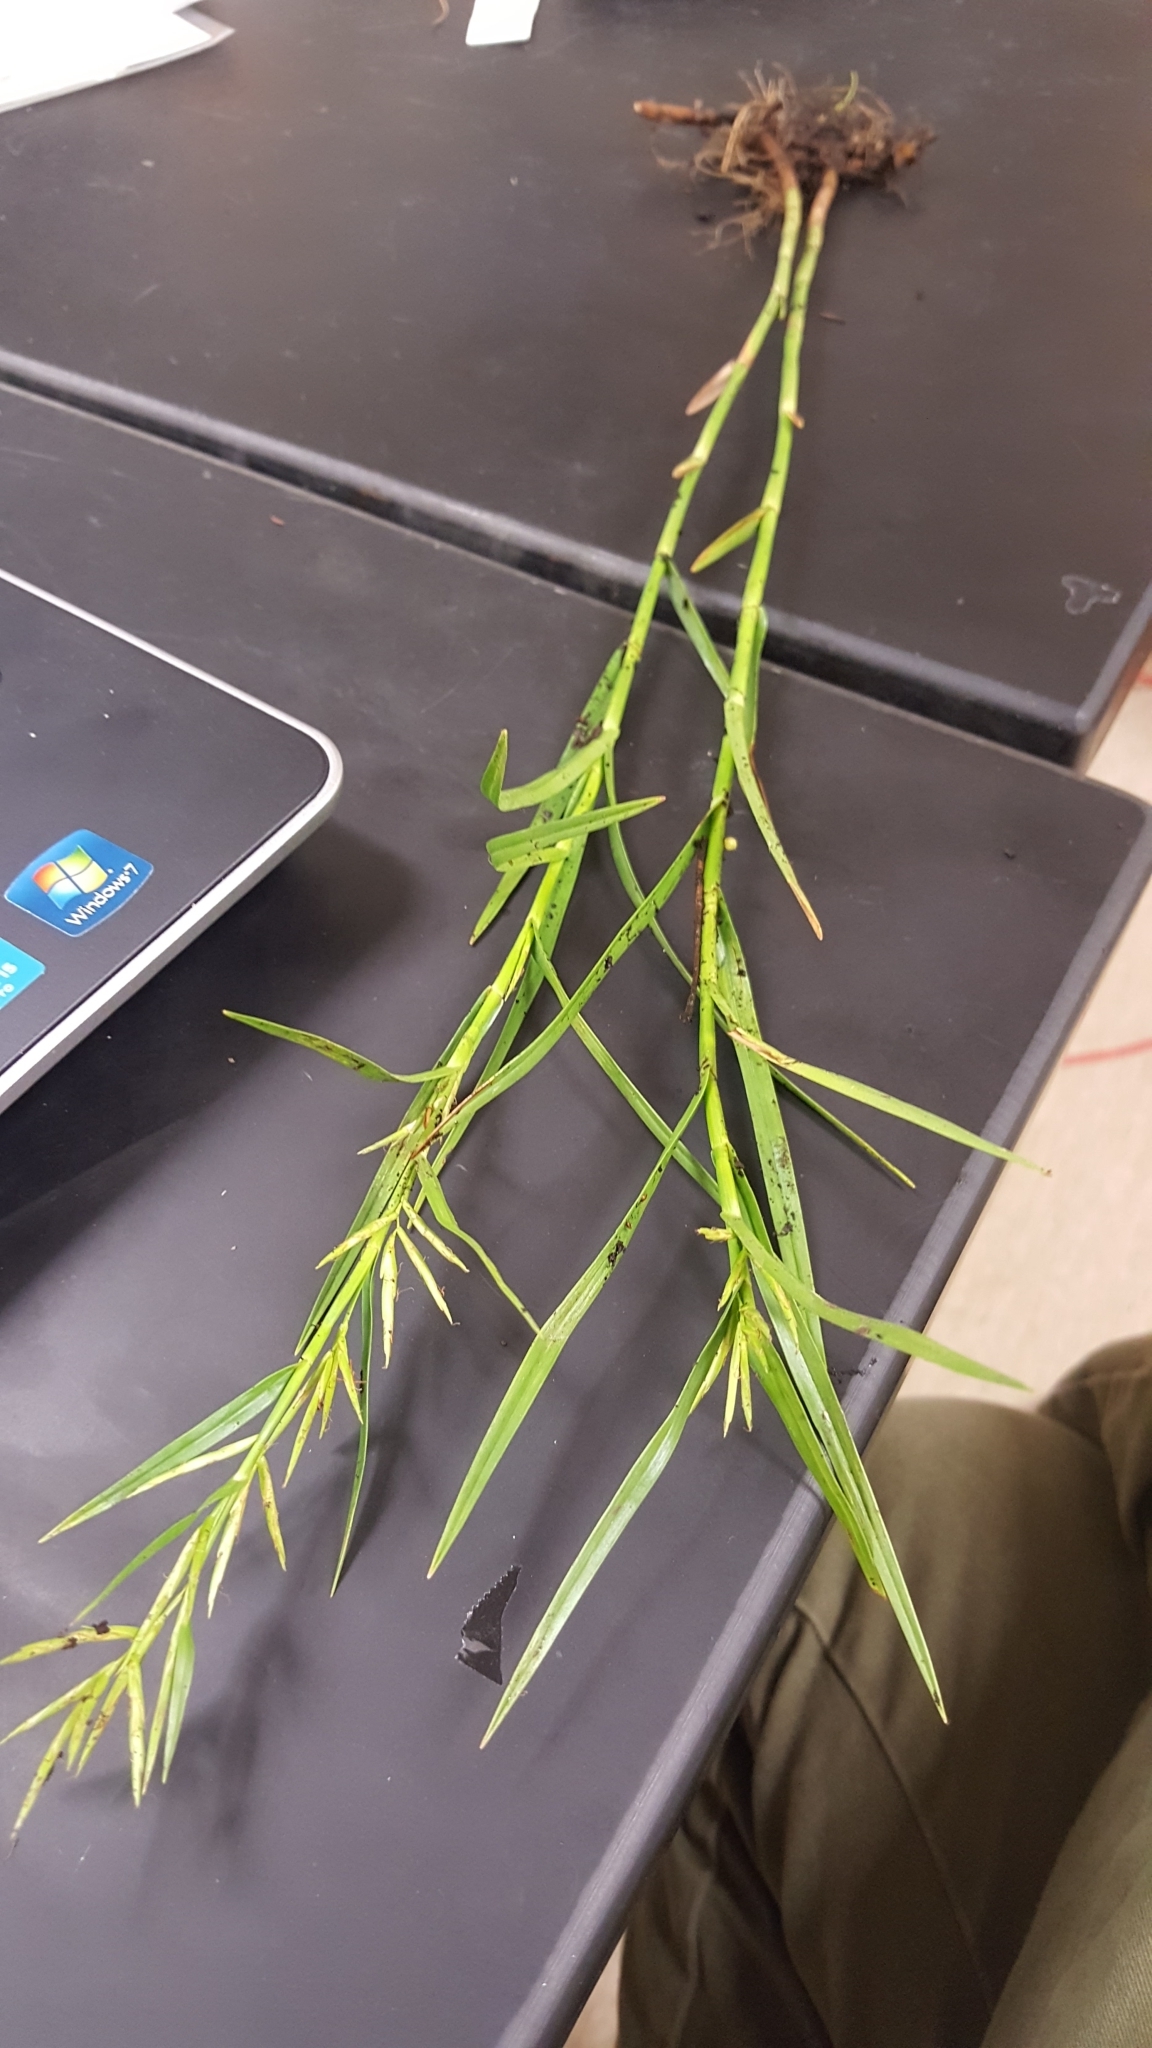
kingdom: Plantae
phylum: Tracheophyta
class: Liliopsida
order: Poales
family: Cyperaceae
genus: Dulichium
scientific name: Dulichium arundinaceum
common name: Three-way sedge
